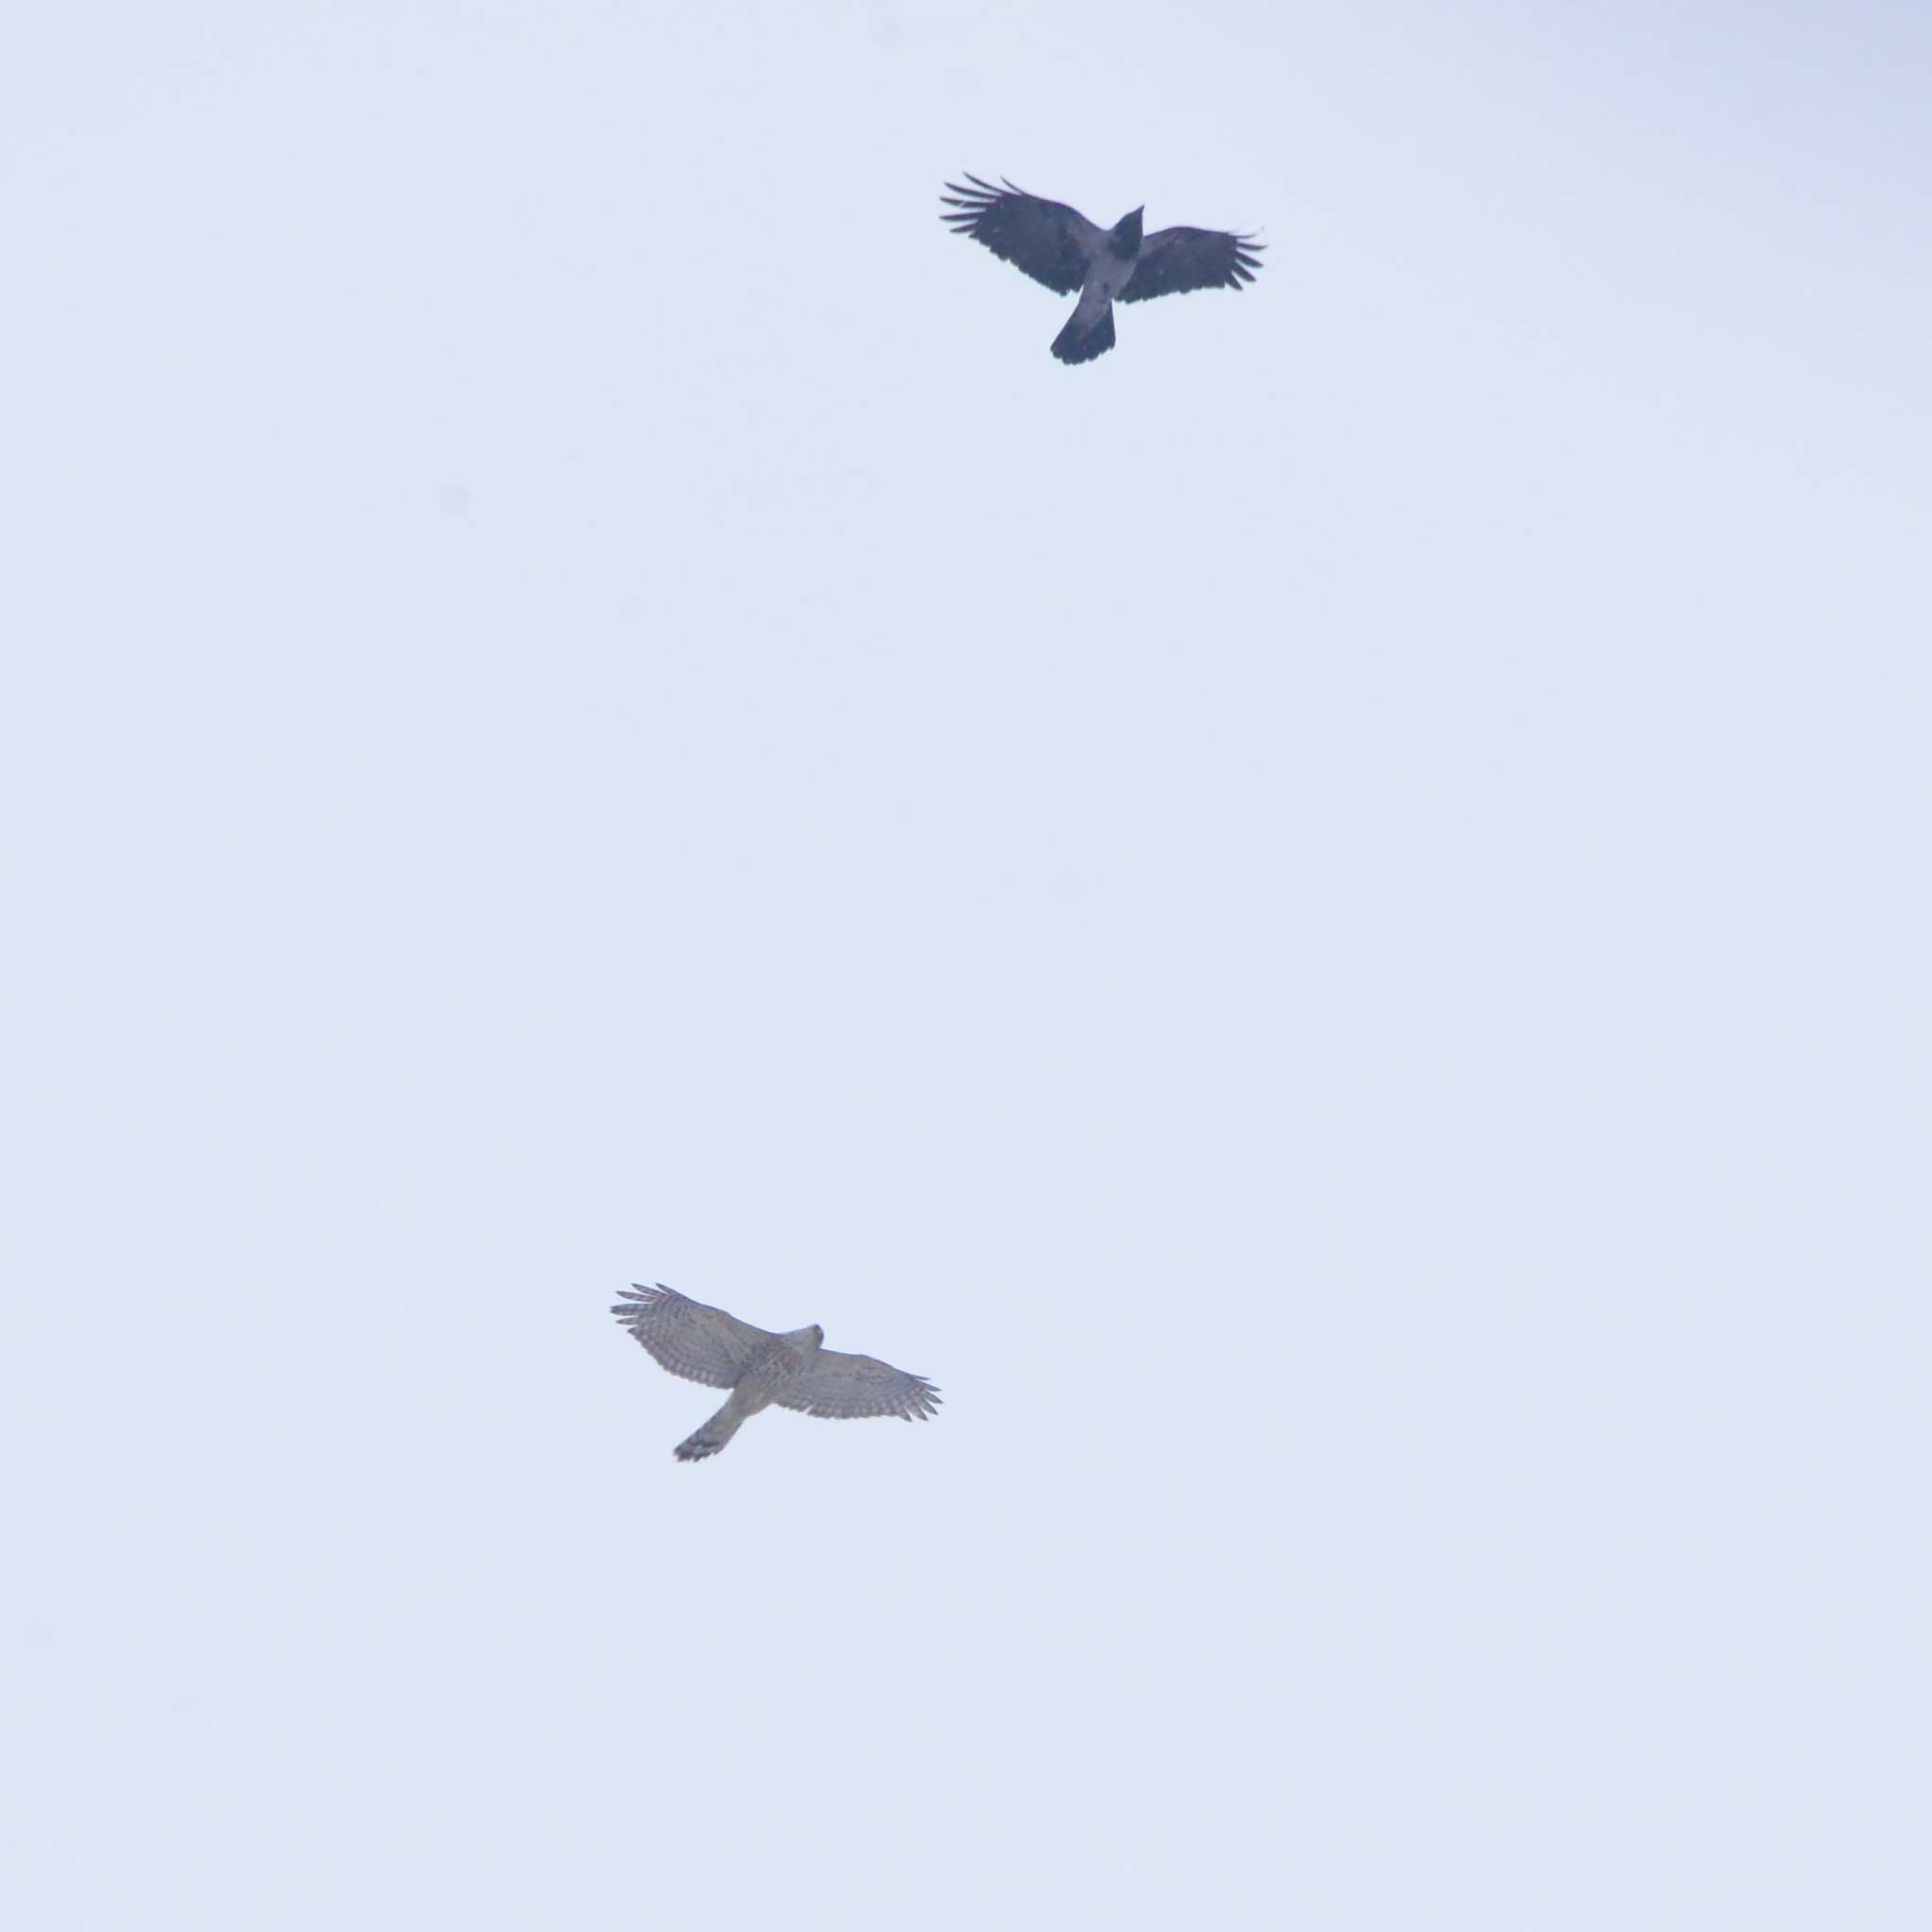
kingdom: Animalia
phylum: Chordata
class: Aves
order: Accipitriformes
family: Accipitridae
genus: Accipiter
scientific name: Accipiter gentilis
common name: Northern goshawk
